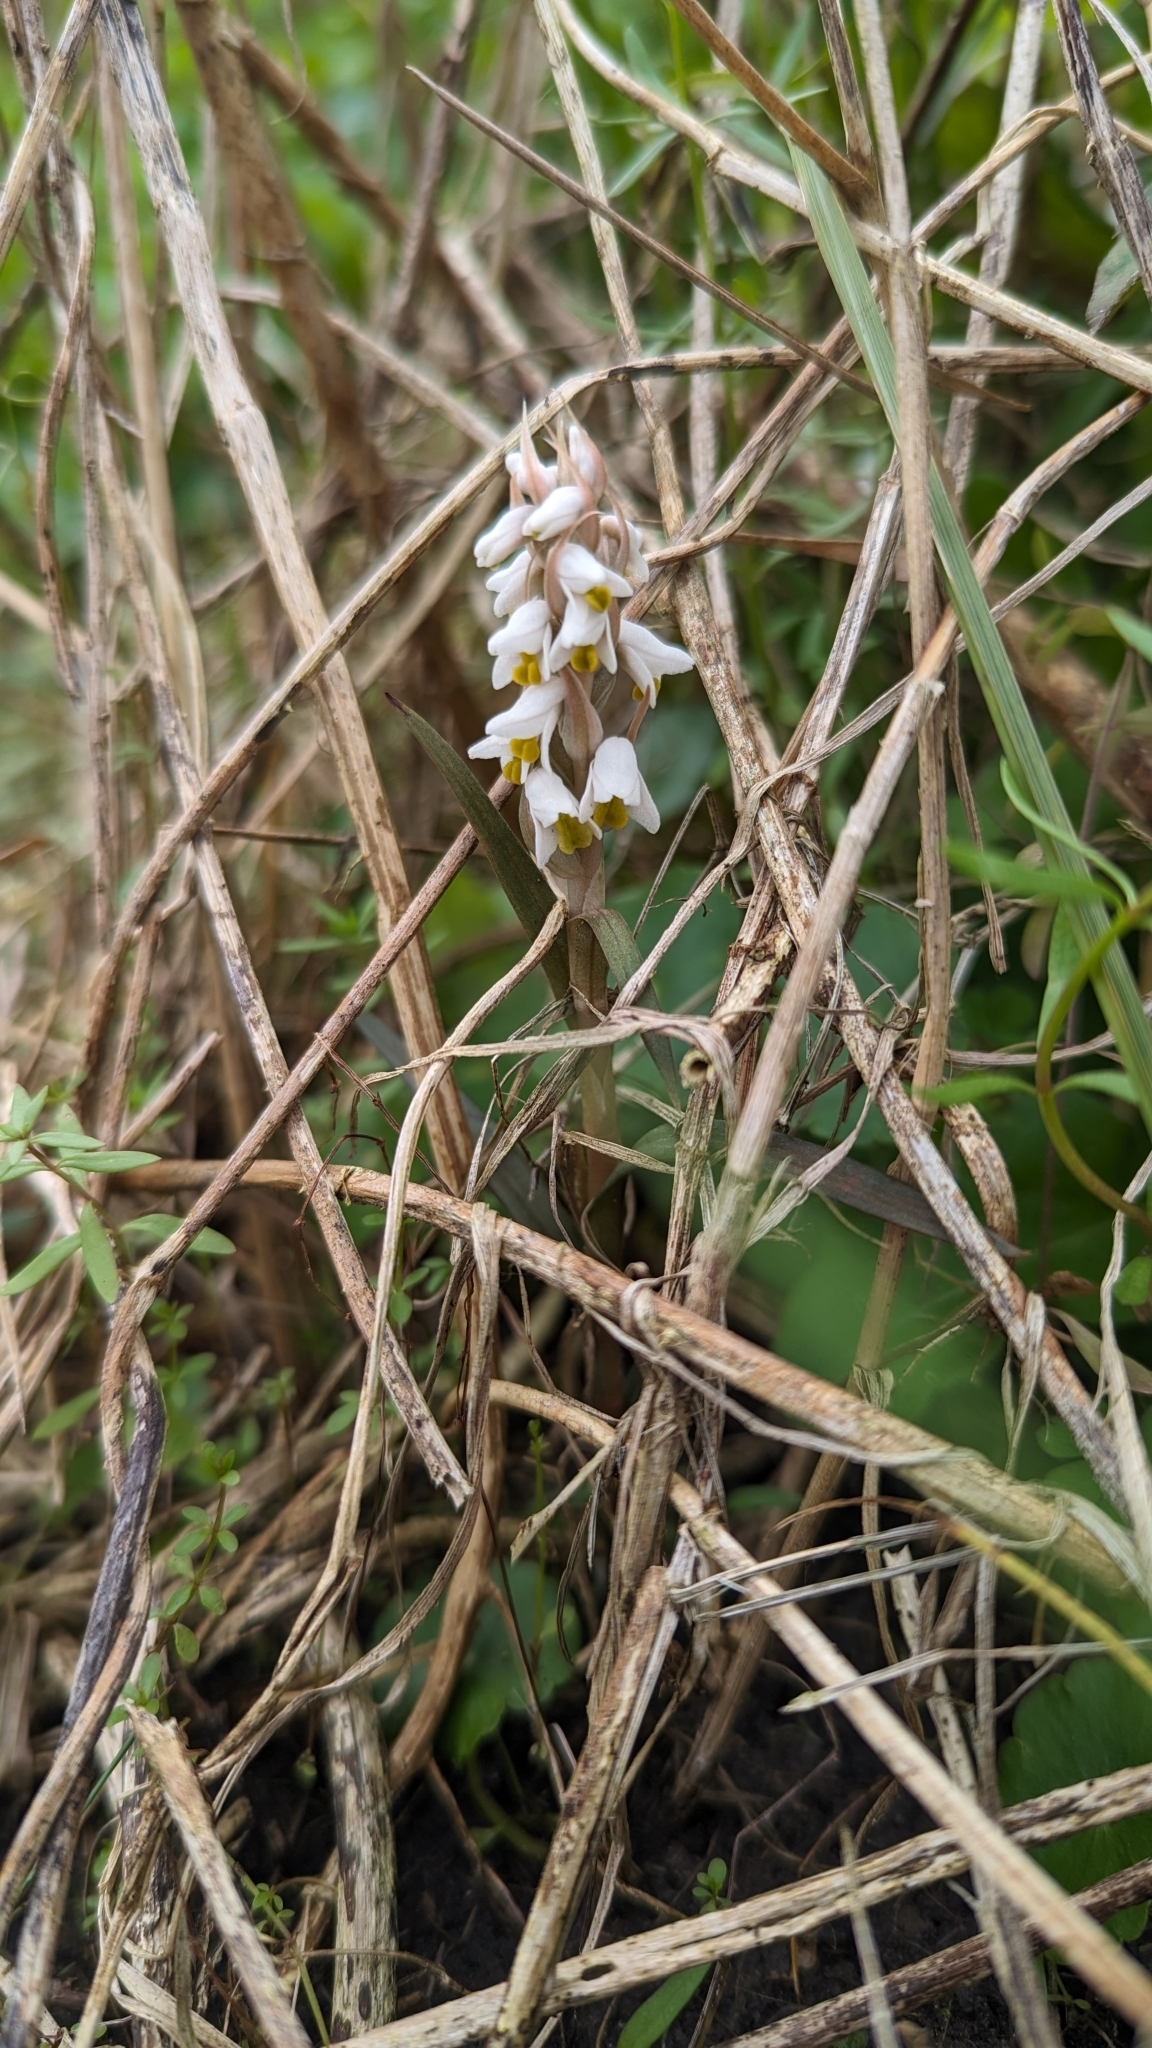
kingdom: Plantae
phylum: Tracheophyta
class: Liliopsida
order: Asparagales
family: Orchidaceae
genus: Zeuxine
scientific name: Zeuxine strateumatica
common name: Soldier's orchid
